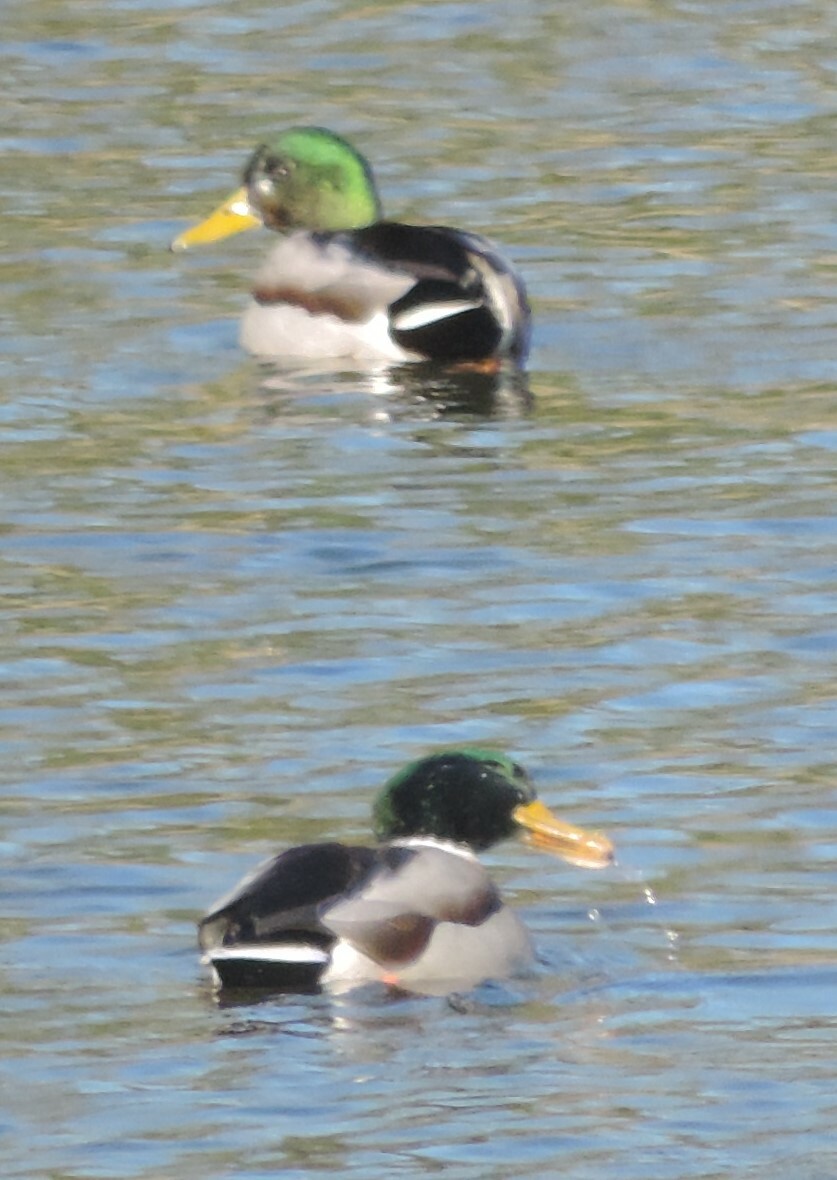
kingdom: Animalia
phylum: Chordata
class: Aves
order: Anseriformes
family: Anatidae
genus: Anas
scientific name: Anas platyrhynchos
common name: Mallard
